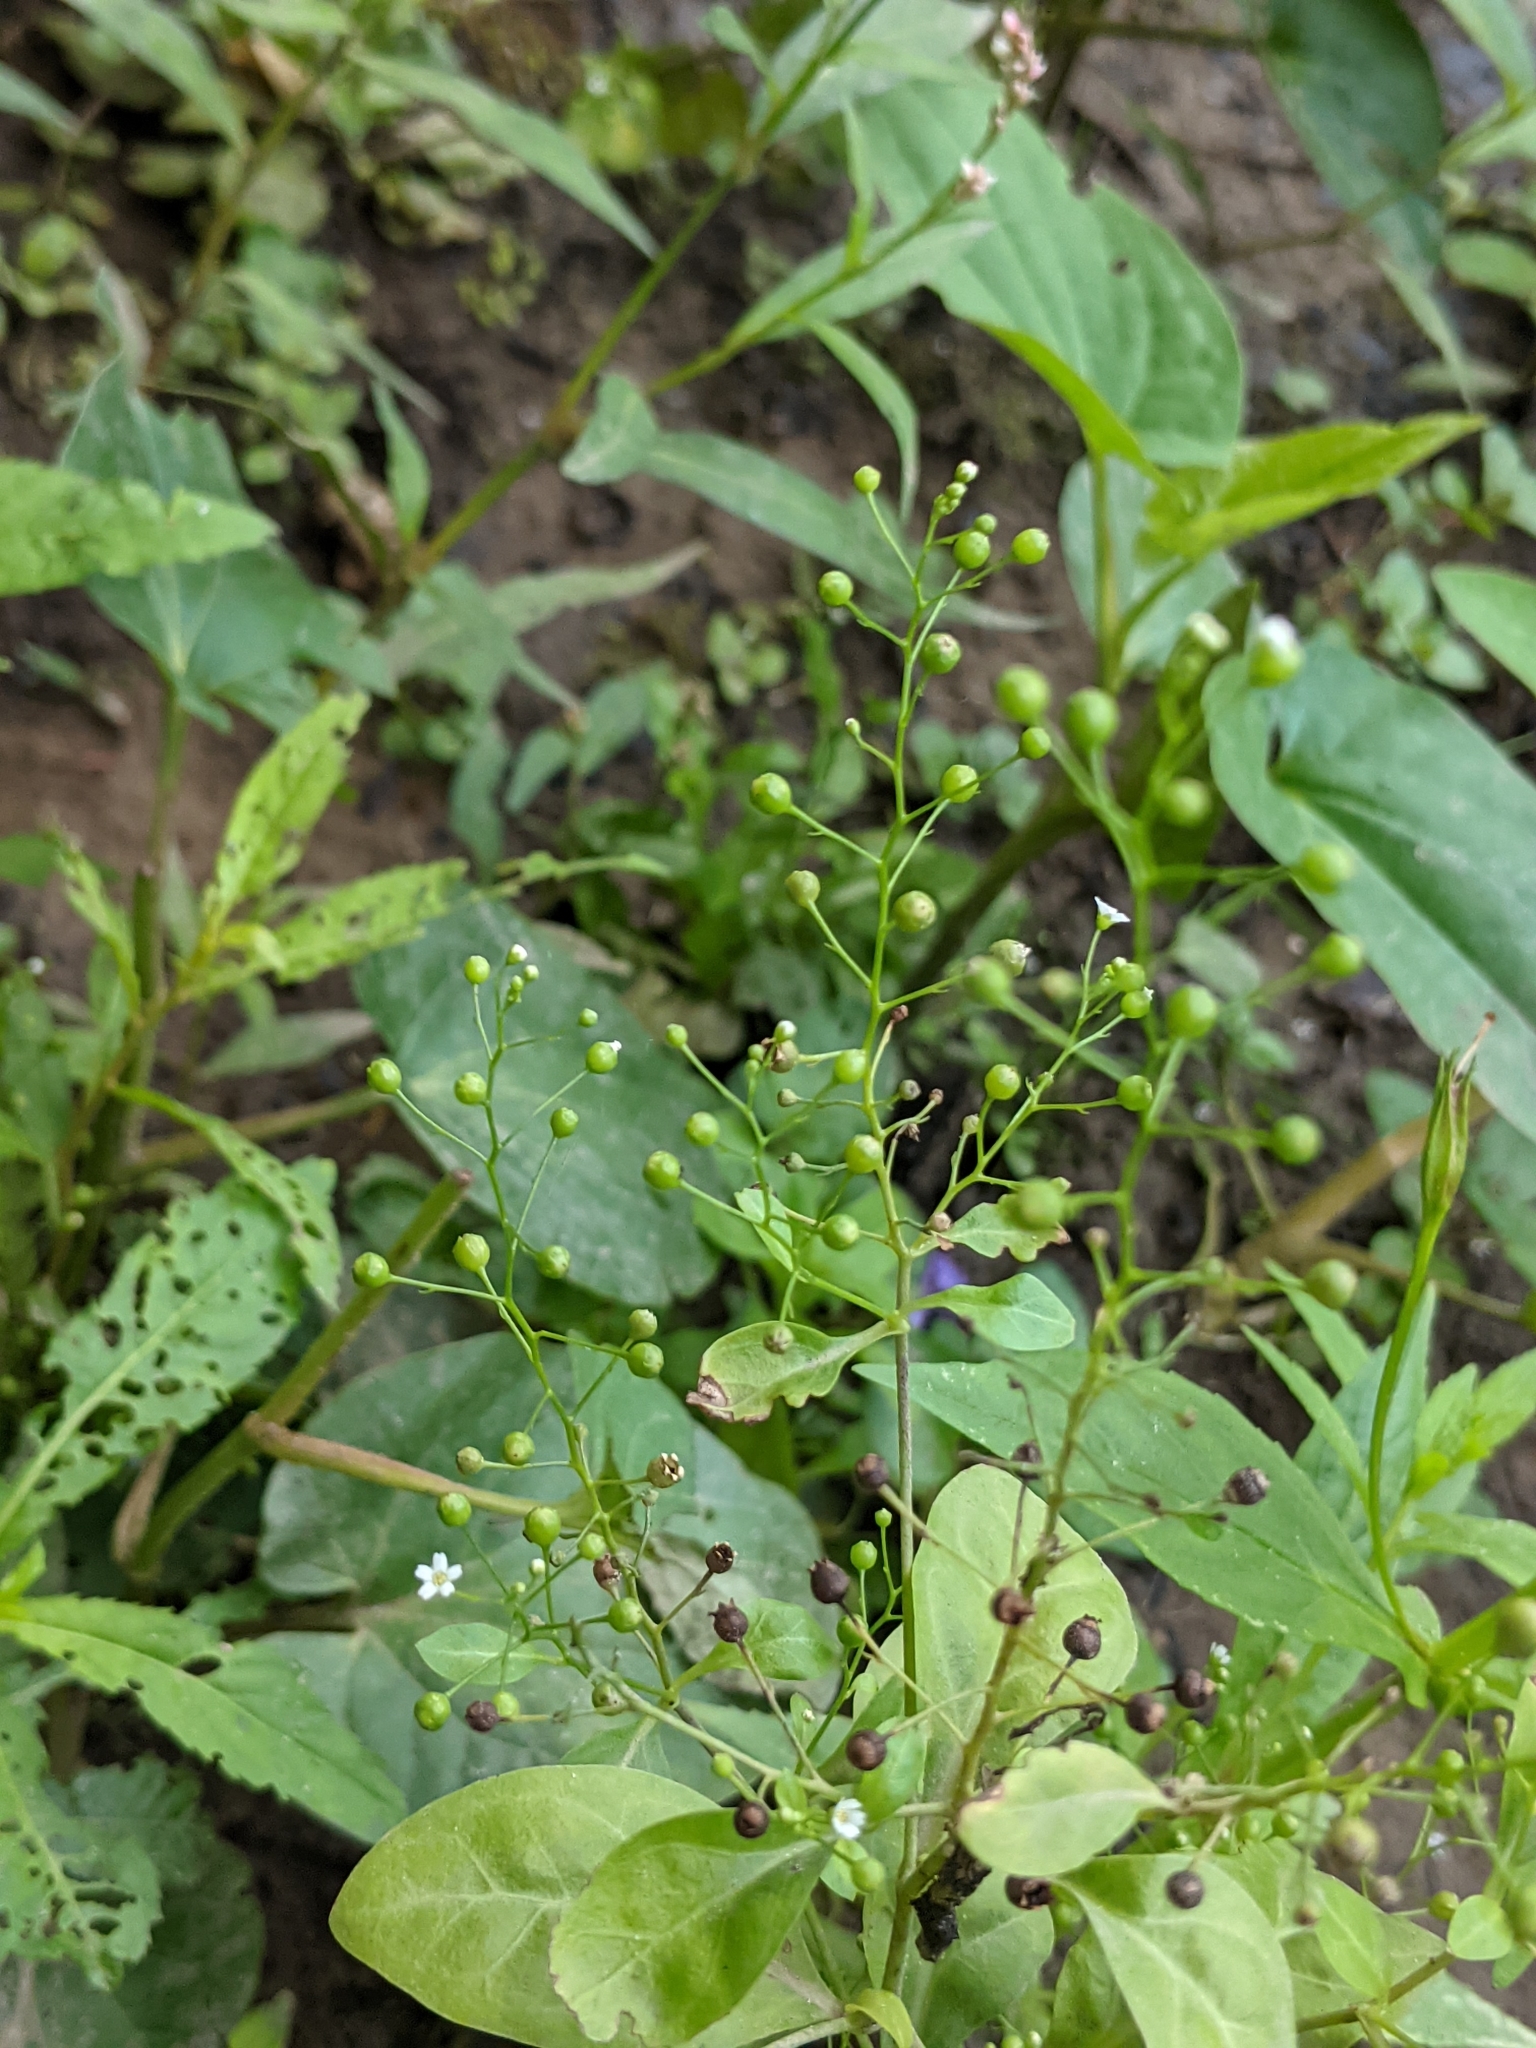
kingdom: Plantae
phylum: Tracheophyta
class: Magnoliopsida
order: Ericales
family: Primulaceae
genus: Samolus
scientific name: Samolus parviflorus
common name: False water pimpernel
